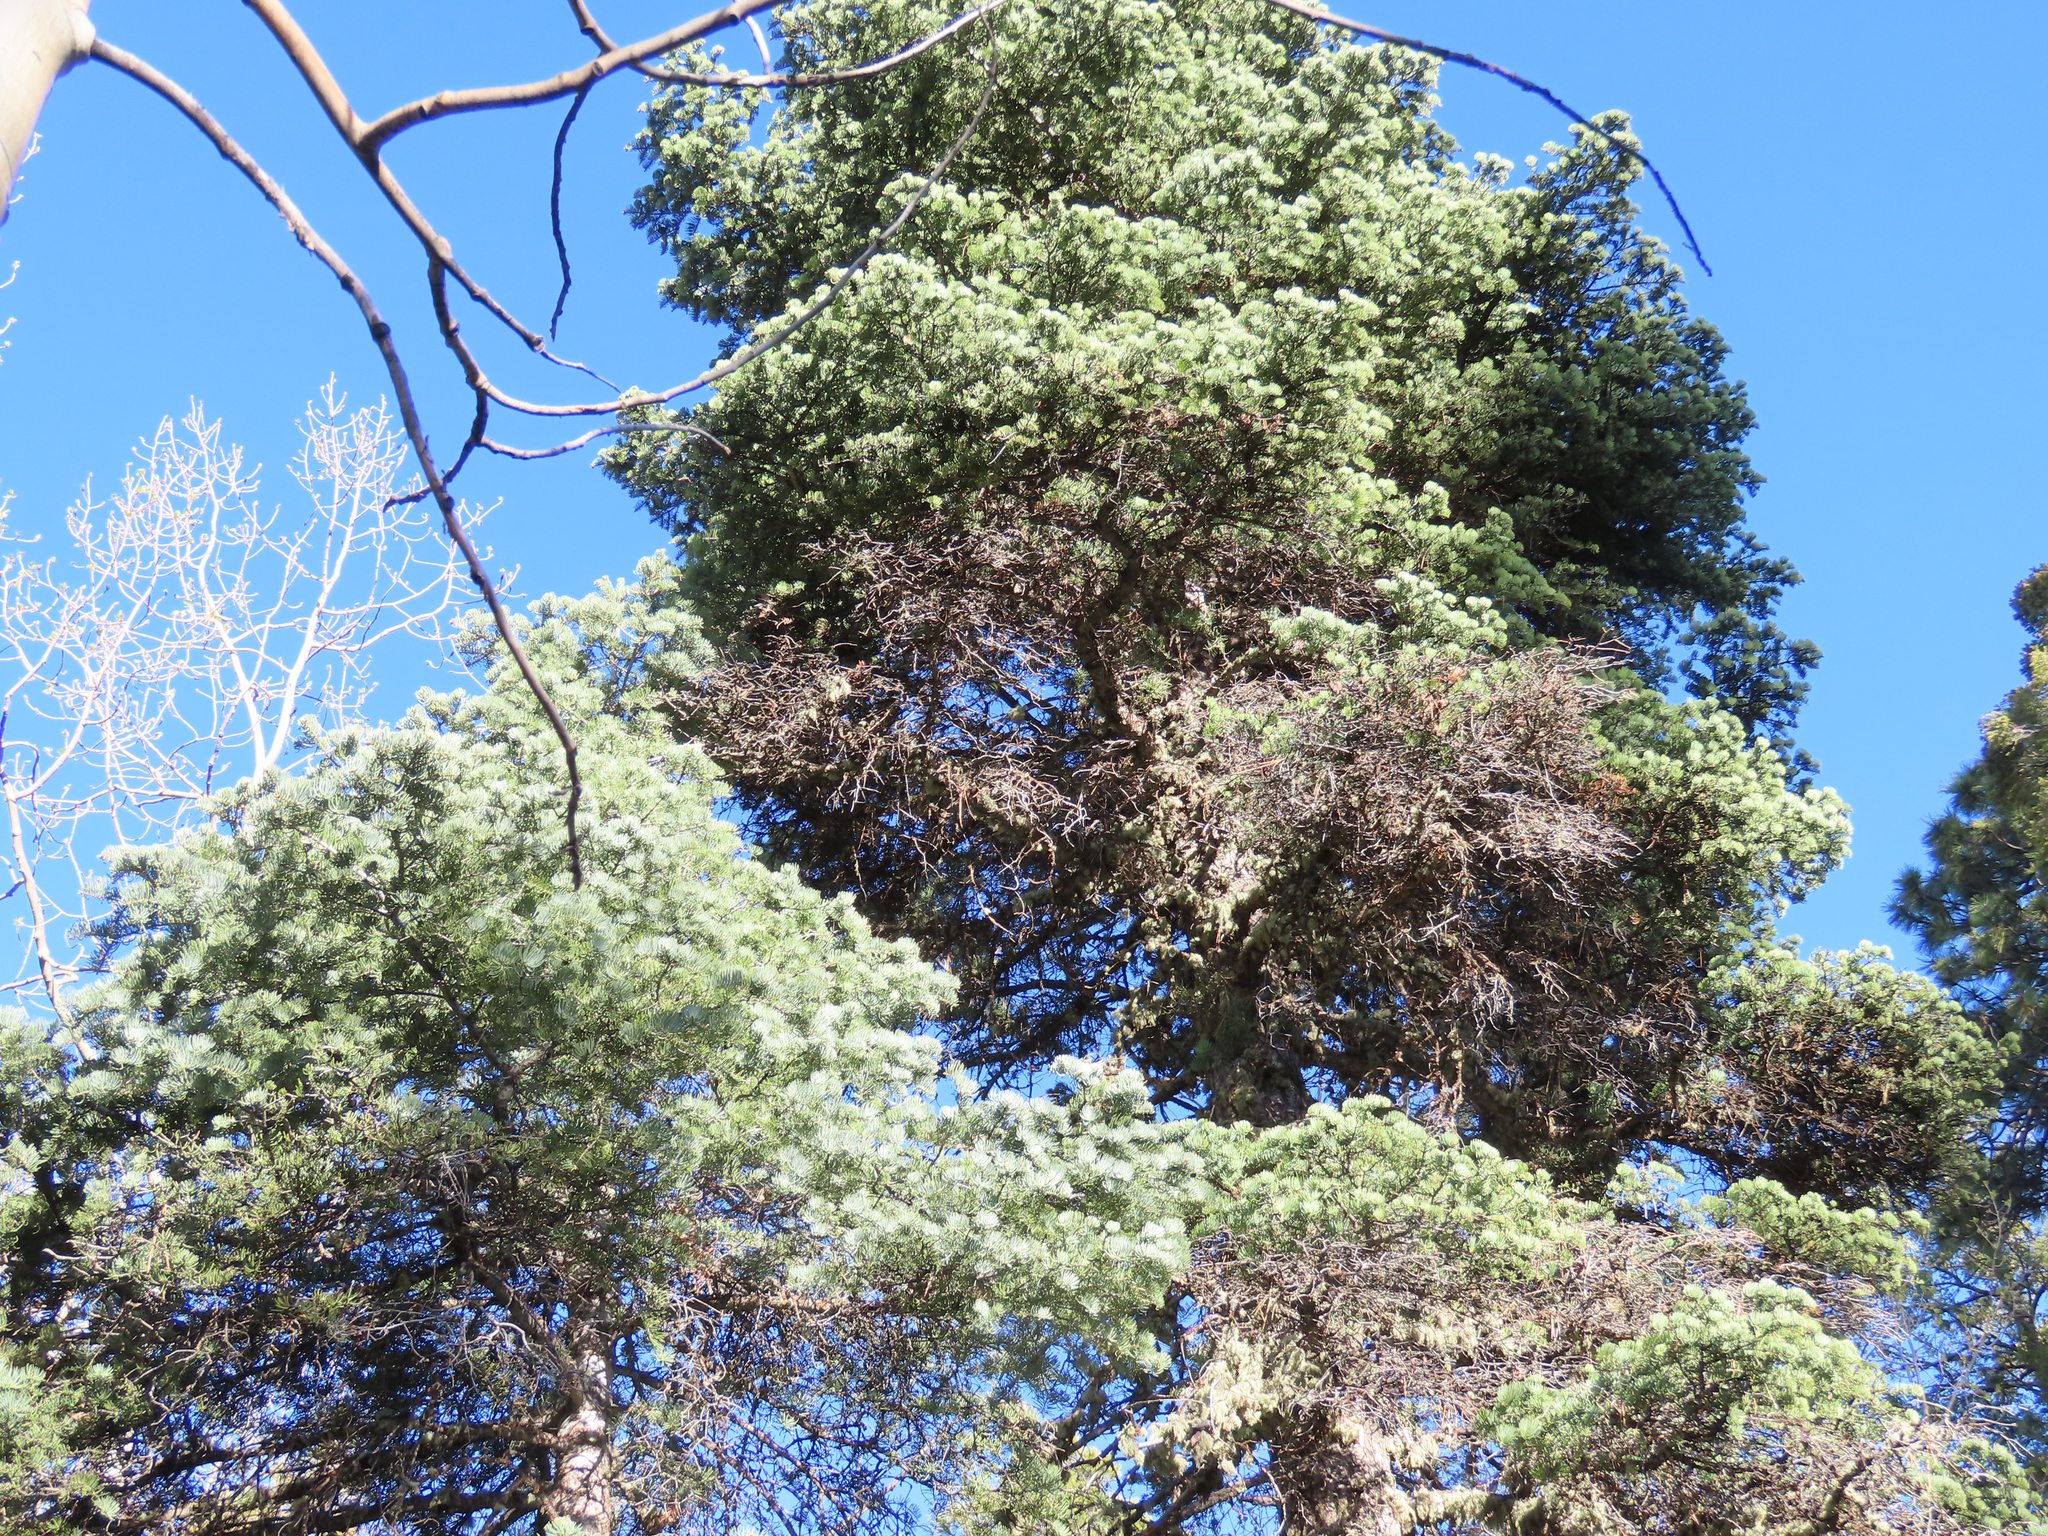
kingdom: Plantae
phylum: Tracheophyta
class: Pinopsida
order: Pinales
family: Pinaceae
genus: Abies
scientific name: Abies concolor
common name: Colorado fir
